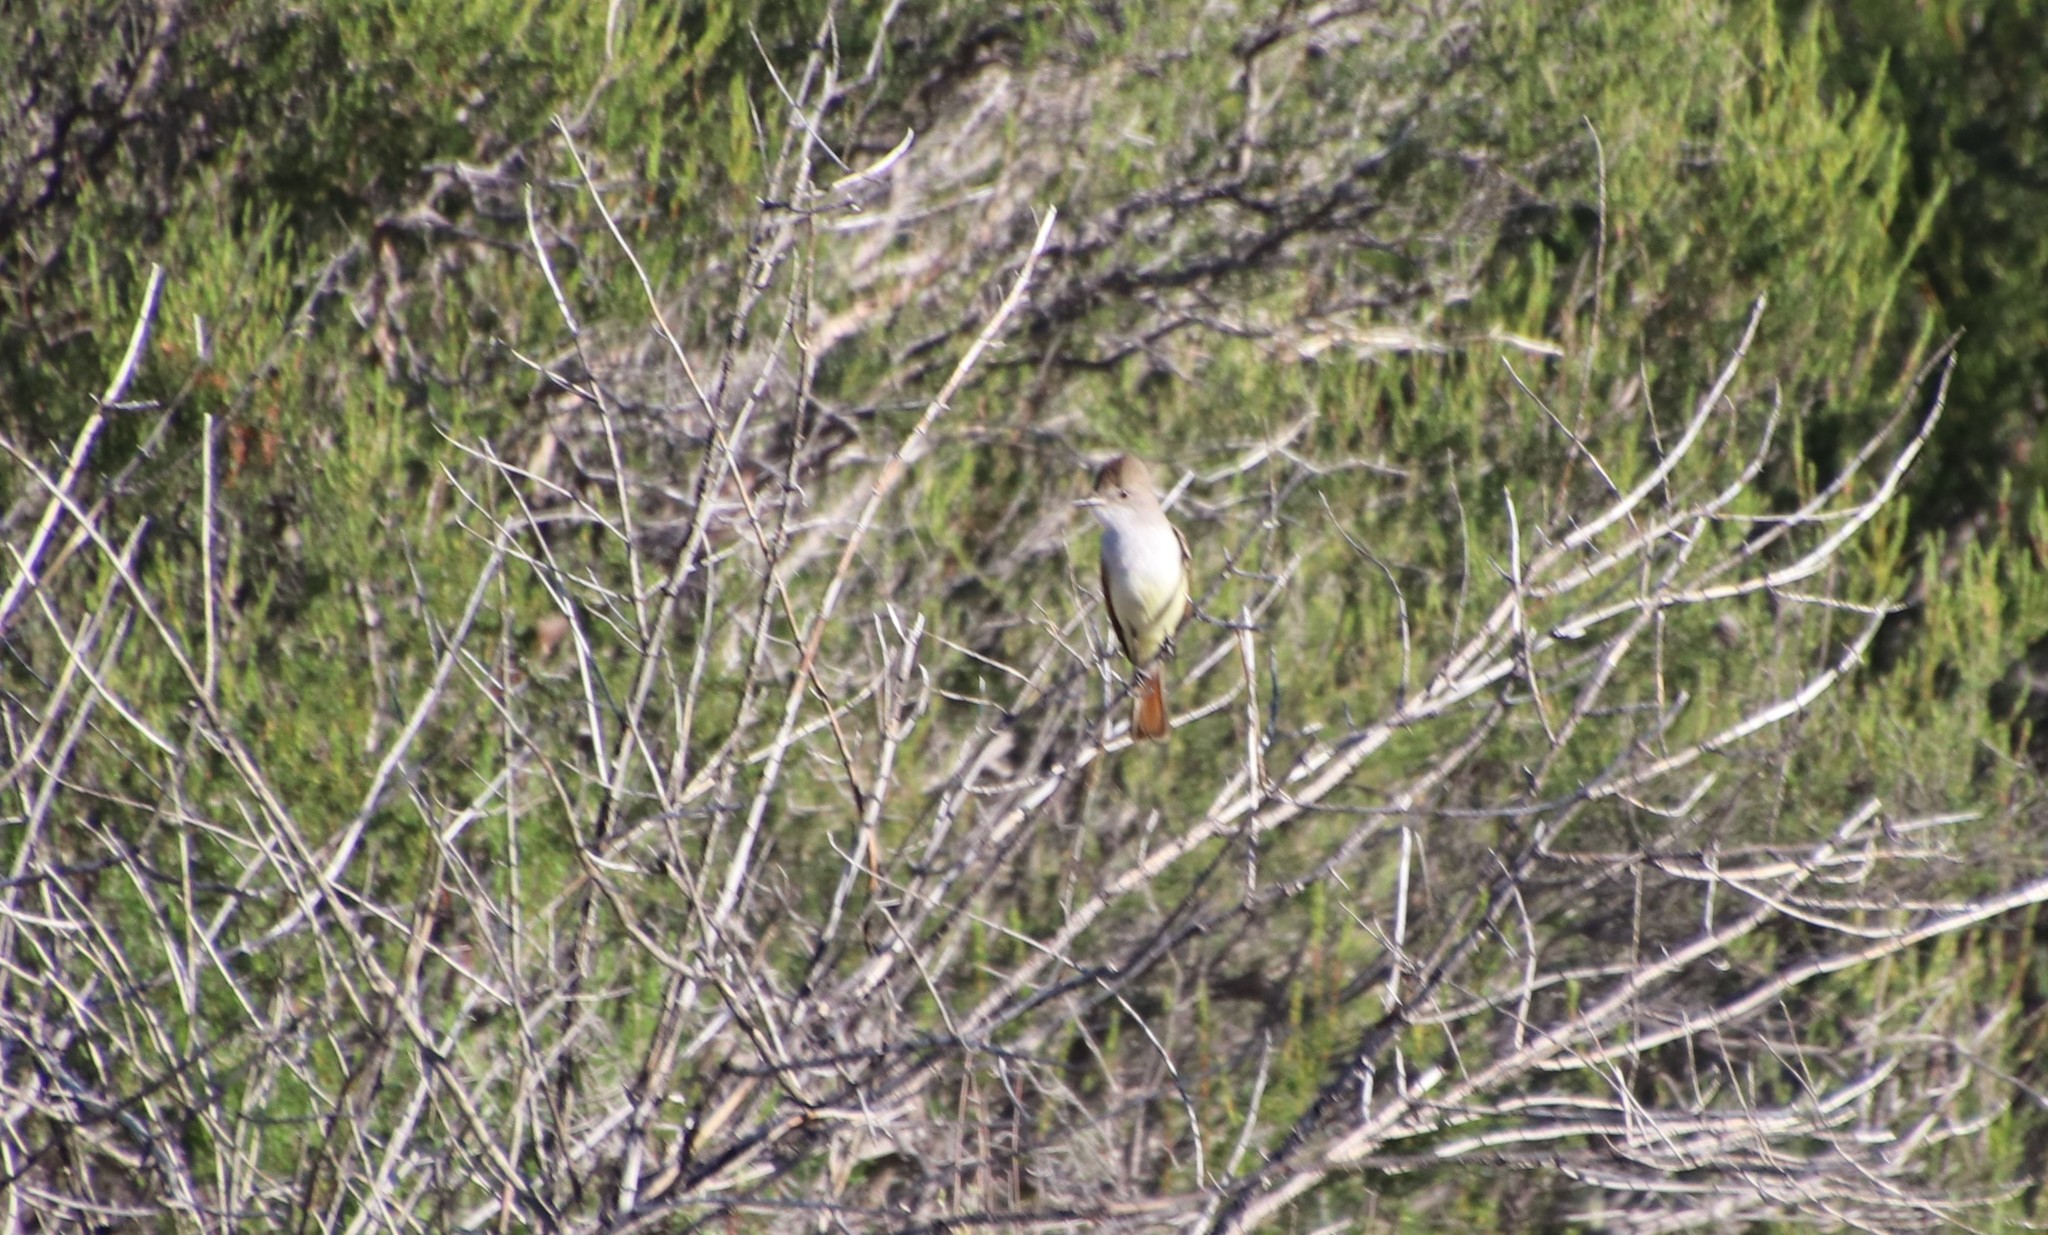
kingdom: Animalia
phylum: Chordata
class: Aves
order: Passeriformes
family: Tyrannidae
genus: Myiarchus
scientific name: Myiarchus cinerascens
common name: Ash-throated flycatcher
